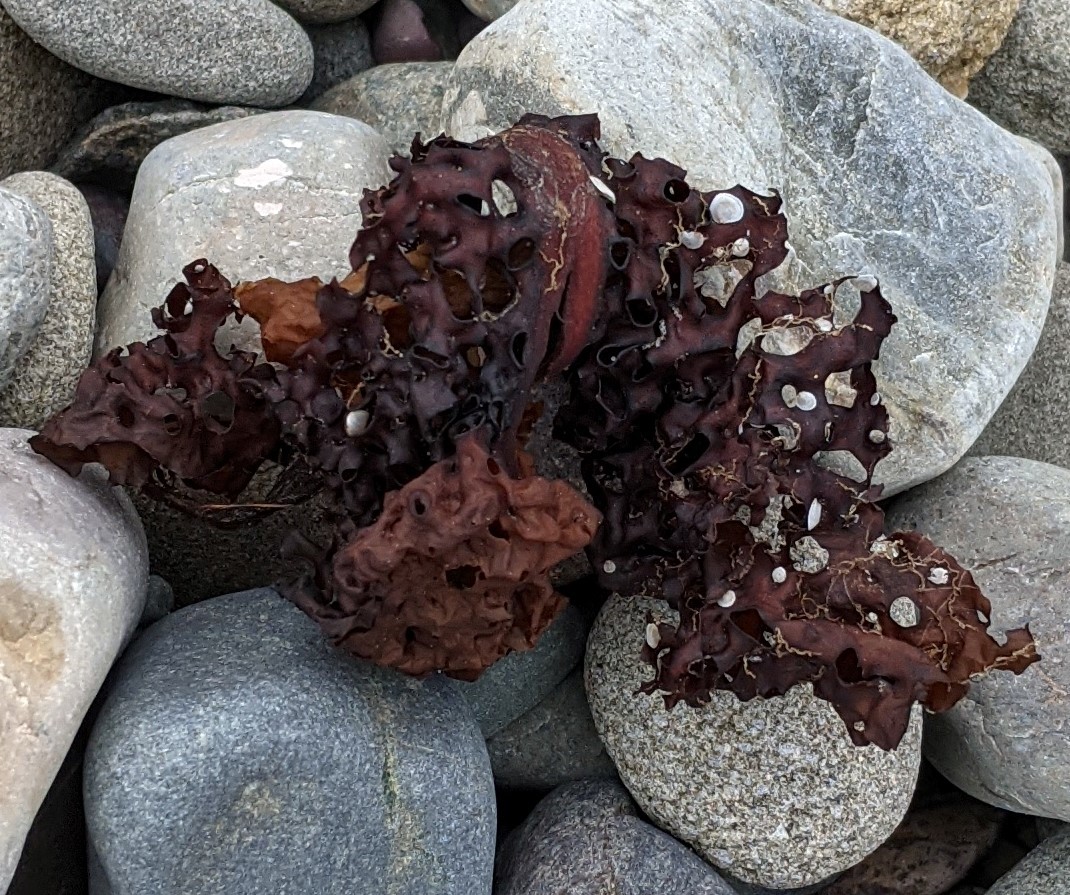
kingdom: Chromista
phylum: Ochrophyta
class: Phaeophyceae
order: Laminariales
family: Costariaceae
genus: Agarum
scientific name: Agarum clathratum
